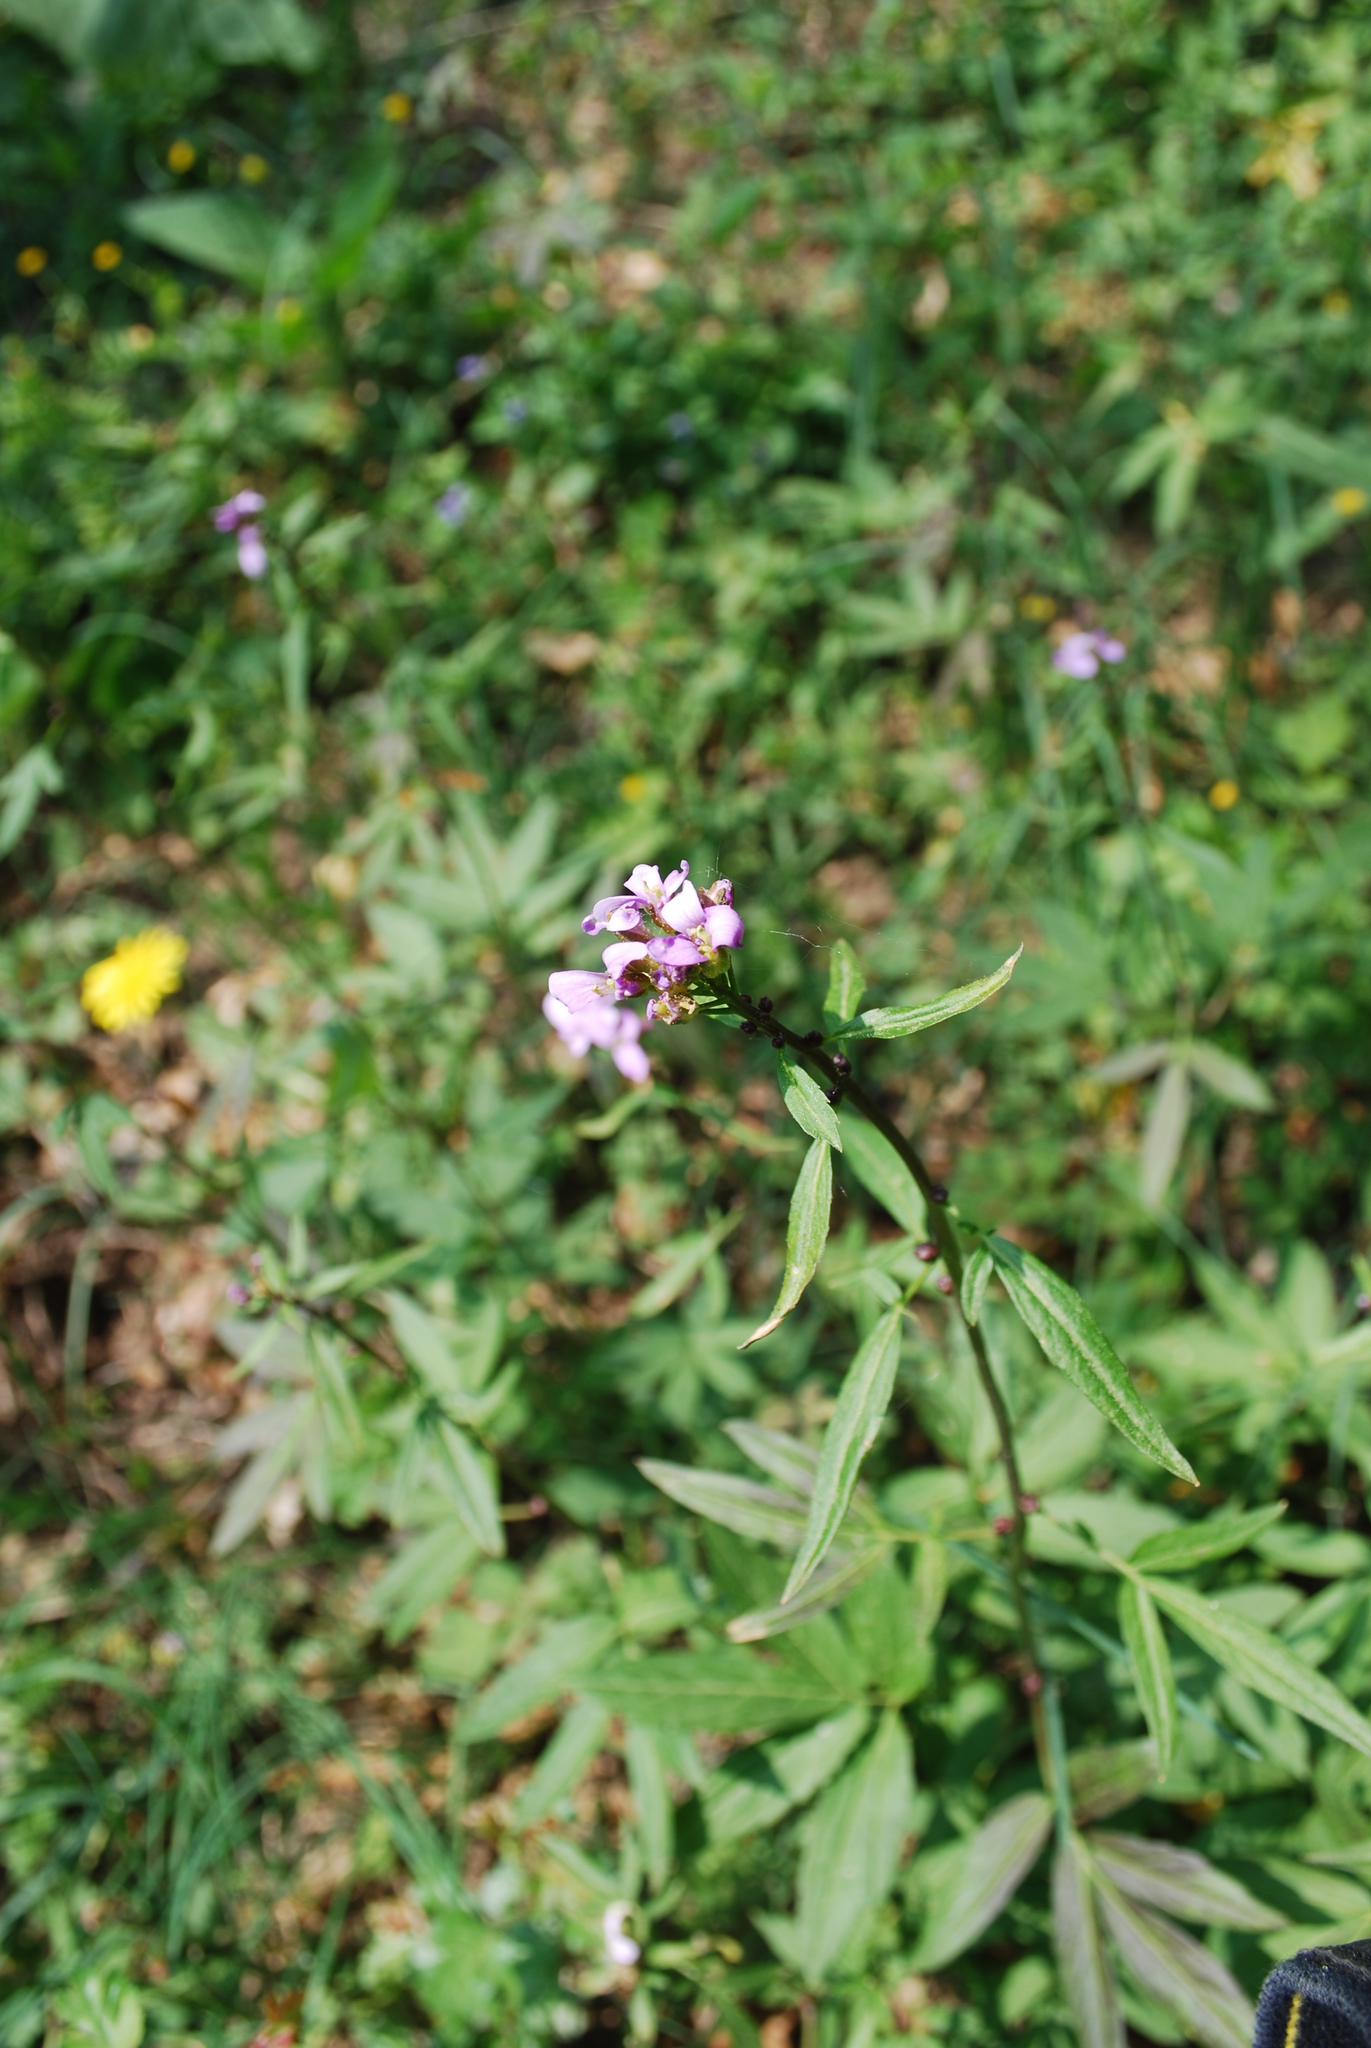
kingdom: Plantae
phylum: Tracheophyta
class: Magnoliopsida
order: Brassicales
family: Brassicaceae
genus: Cardamine
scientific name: Cardamine bulbifera
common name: Coralroot bittercress
